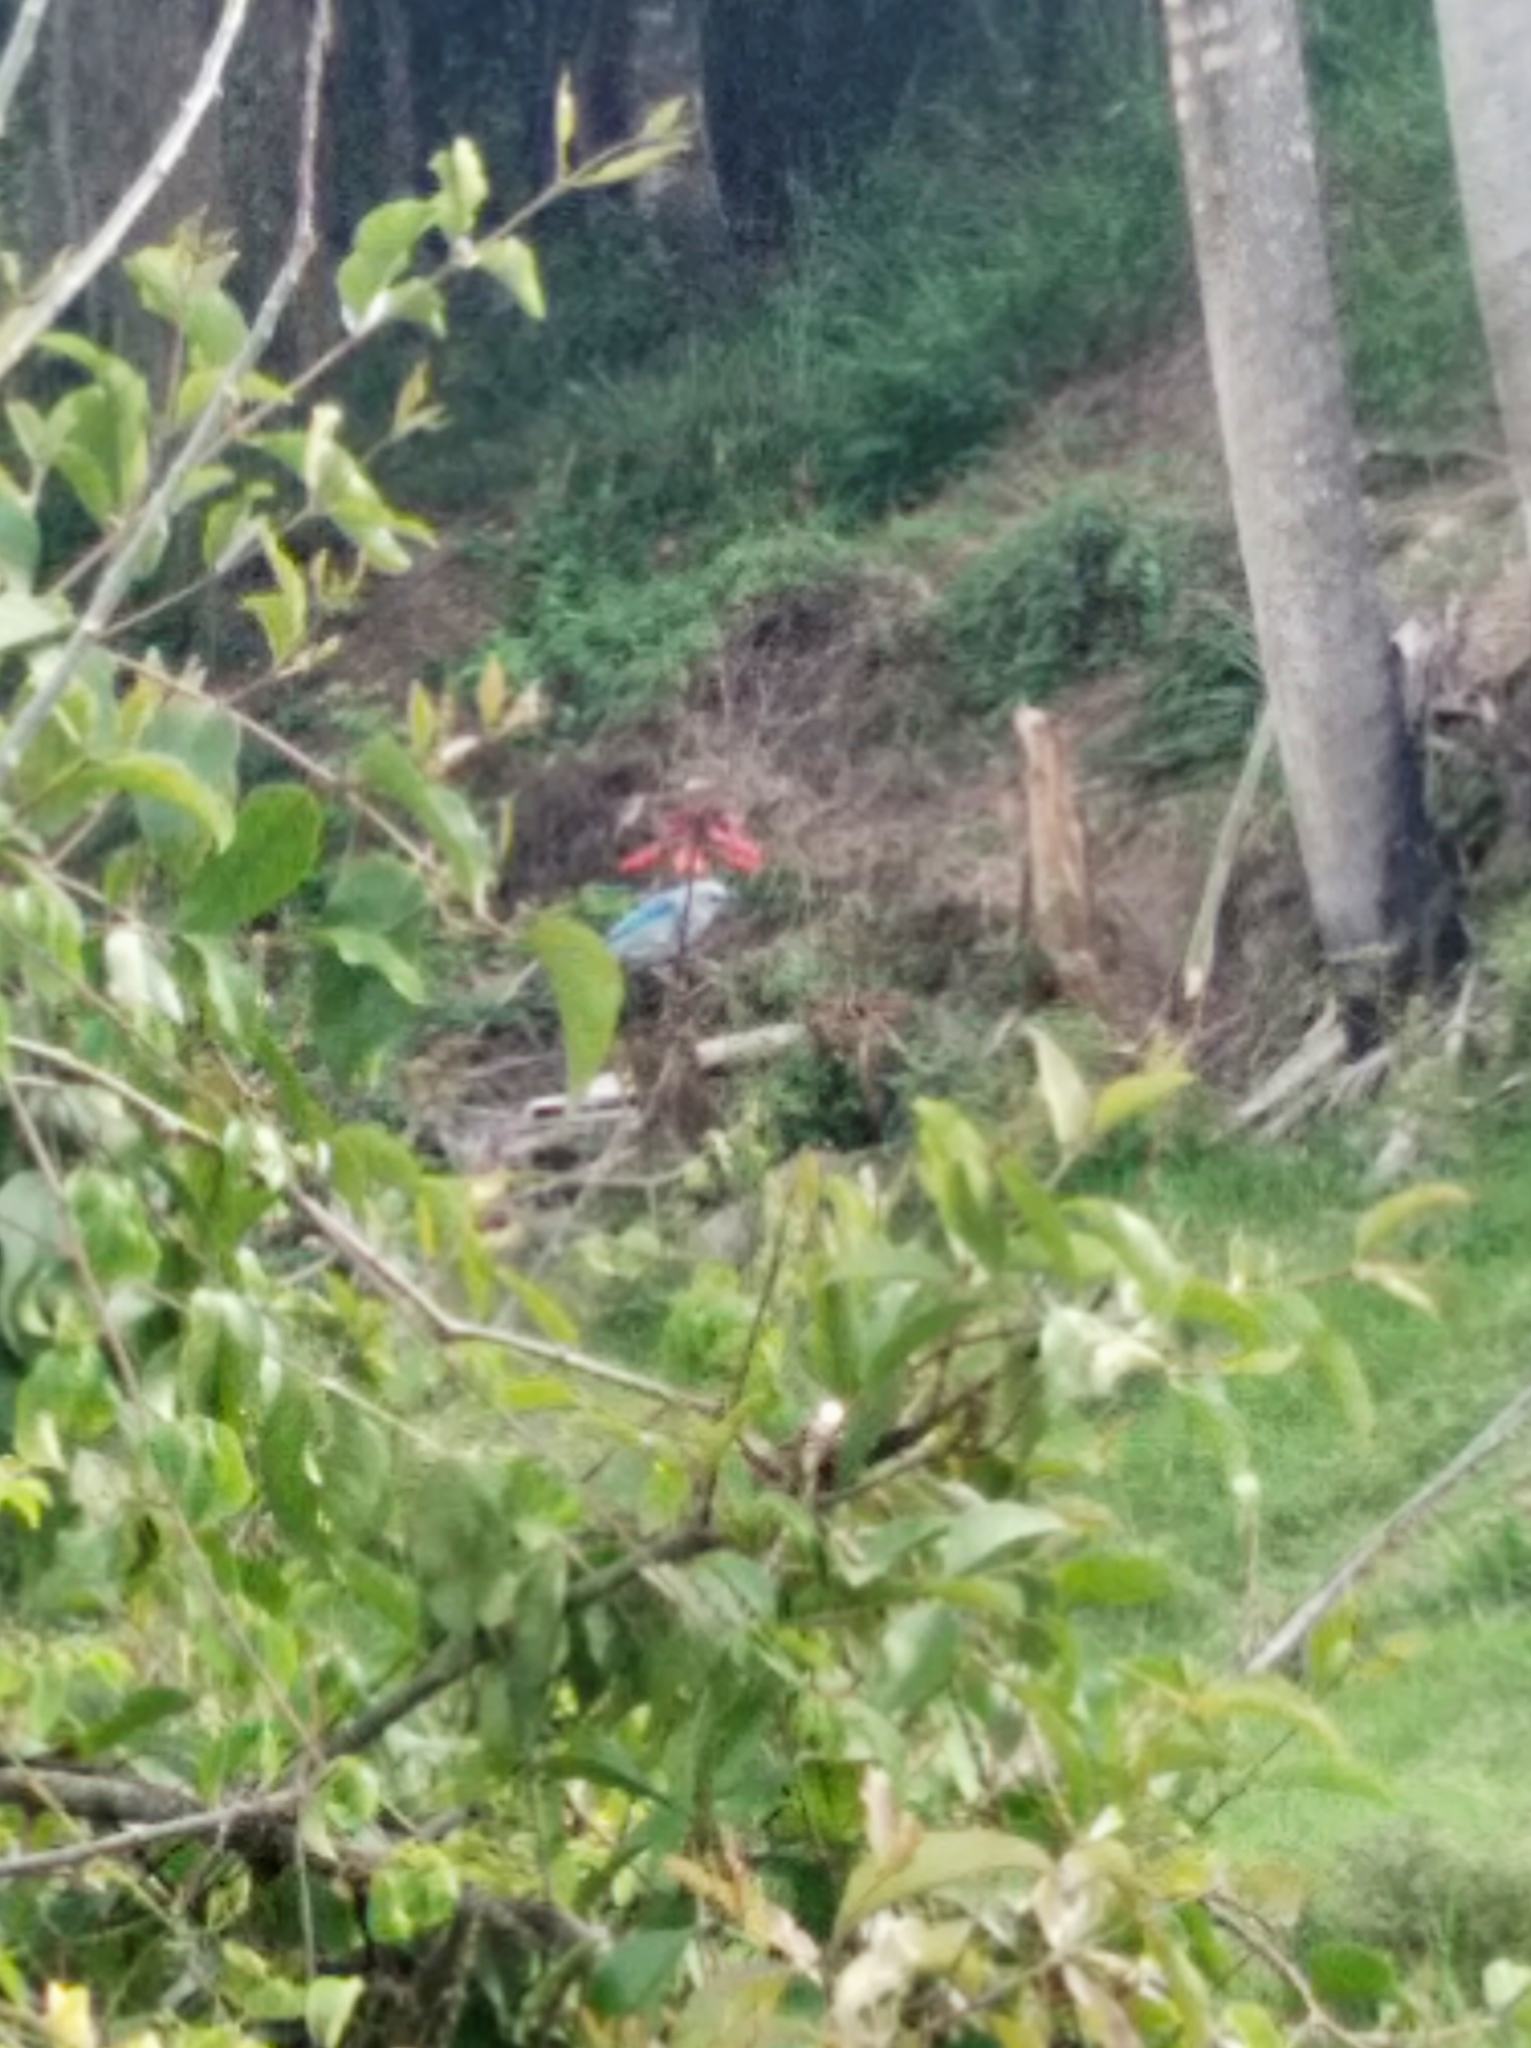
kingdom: Animalia
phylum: Chordata
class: Aves
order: Passeriformes
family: Thraupidae
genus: Thraupis
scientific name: Thraupis episcopus
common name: Blue-grey tanager
